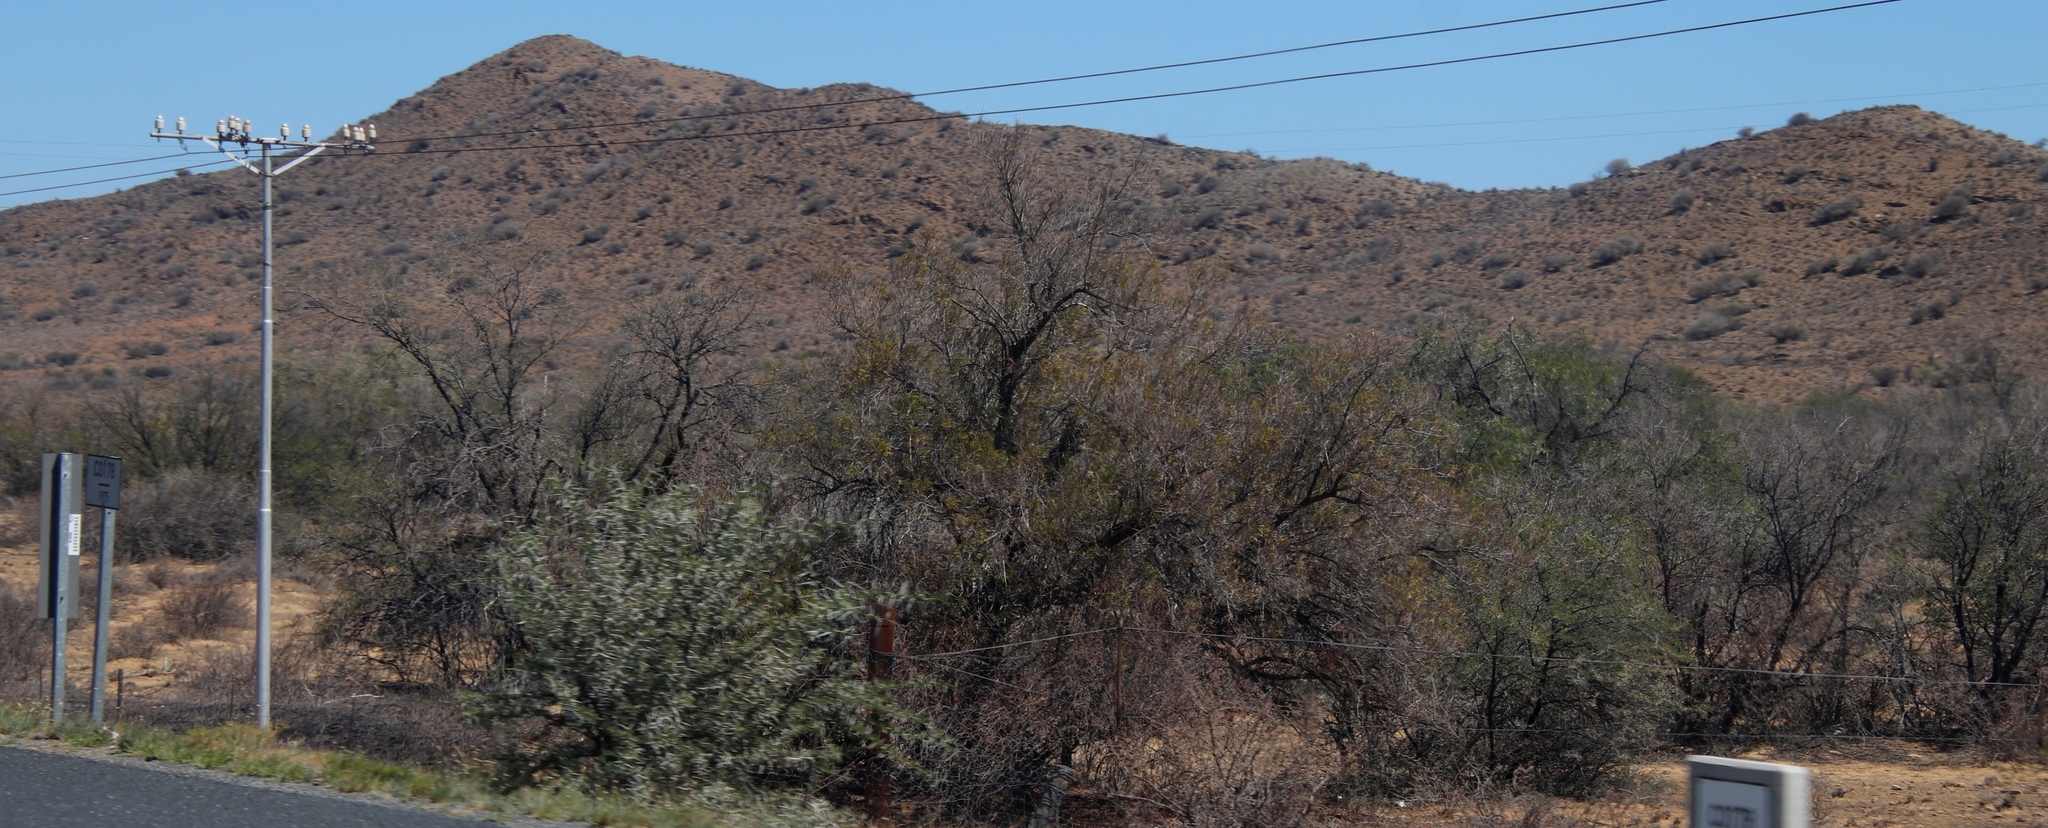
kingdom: Plantae
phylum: Tracheophyta
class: Magnoliopsida
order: Fabales
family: Fabaceae
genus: Vachellia
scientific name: Vachellia karroo
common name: Sweet thorn
